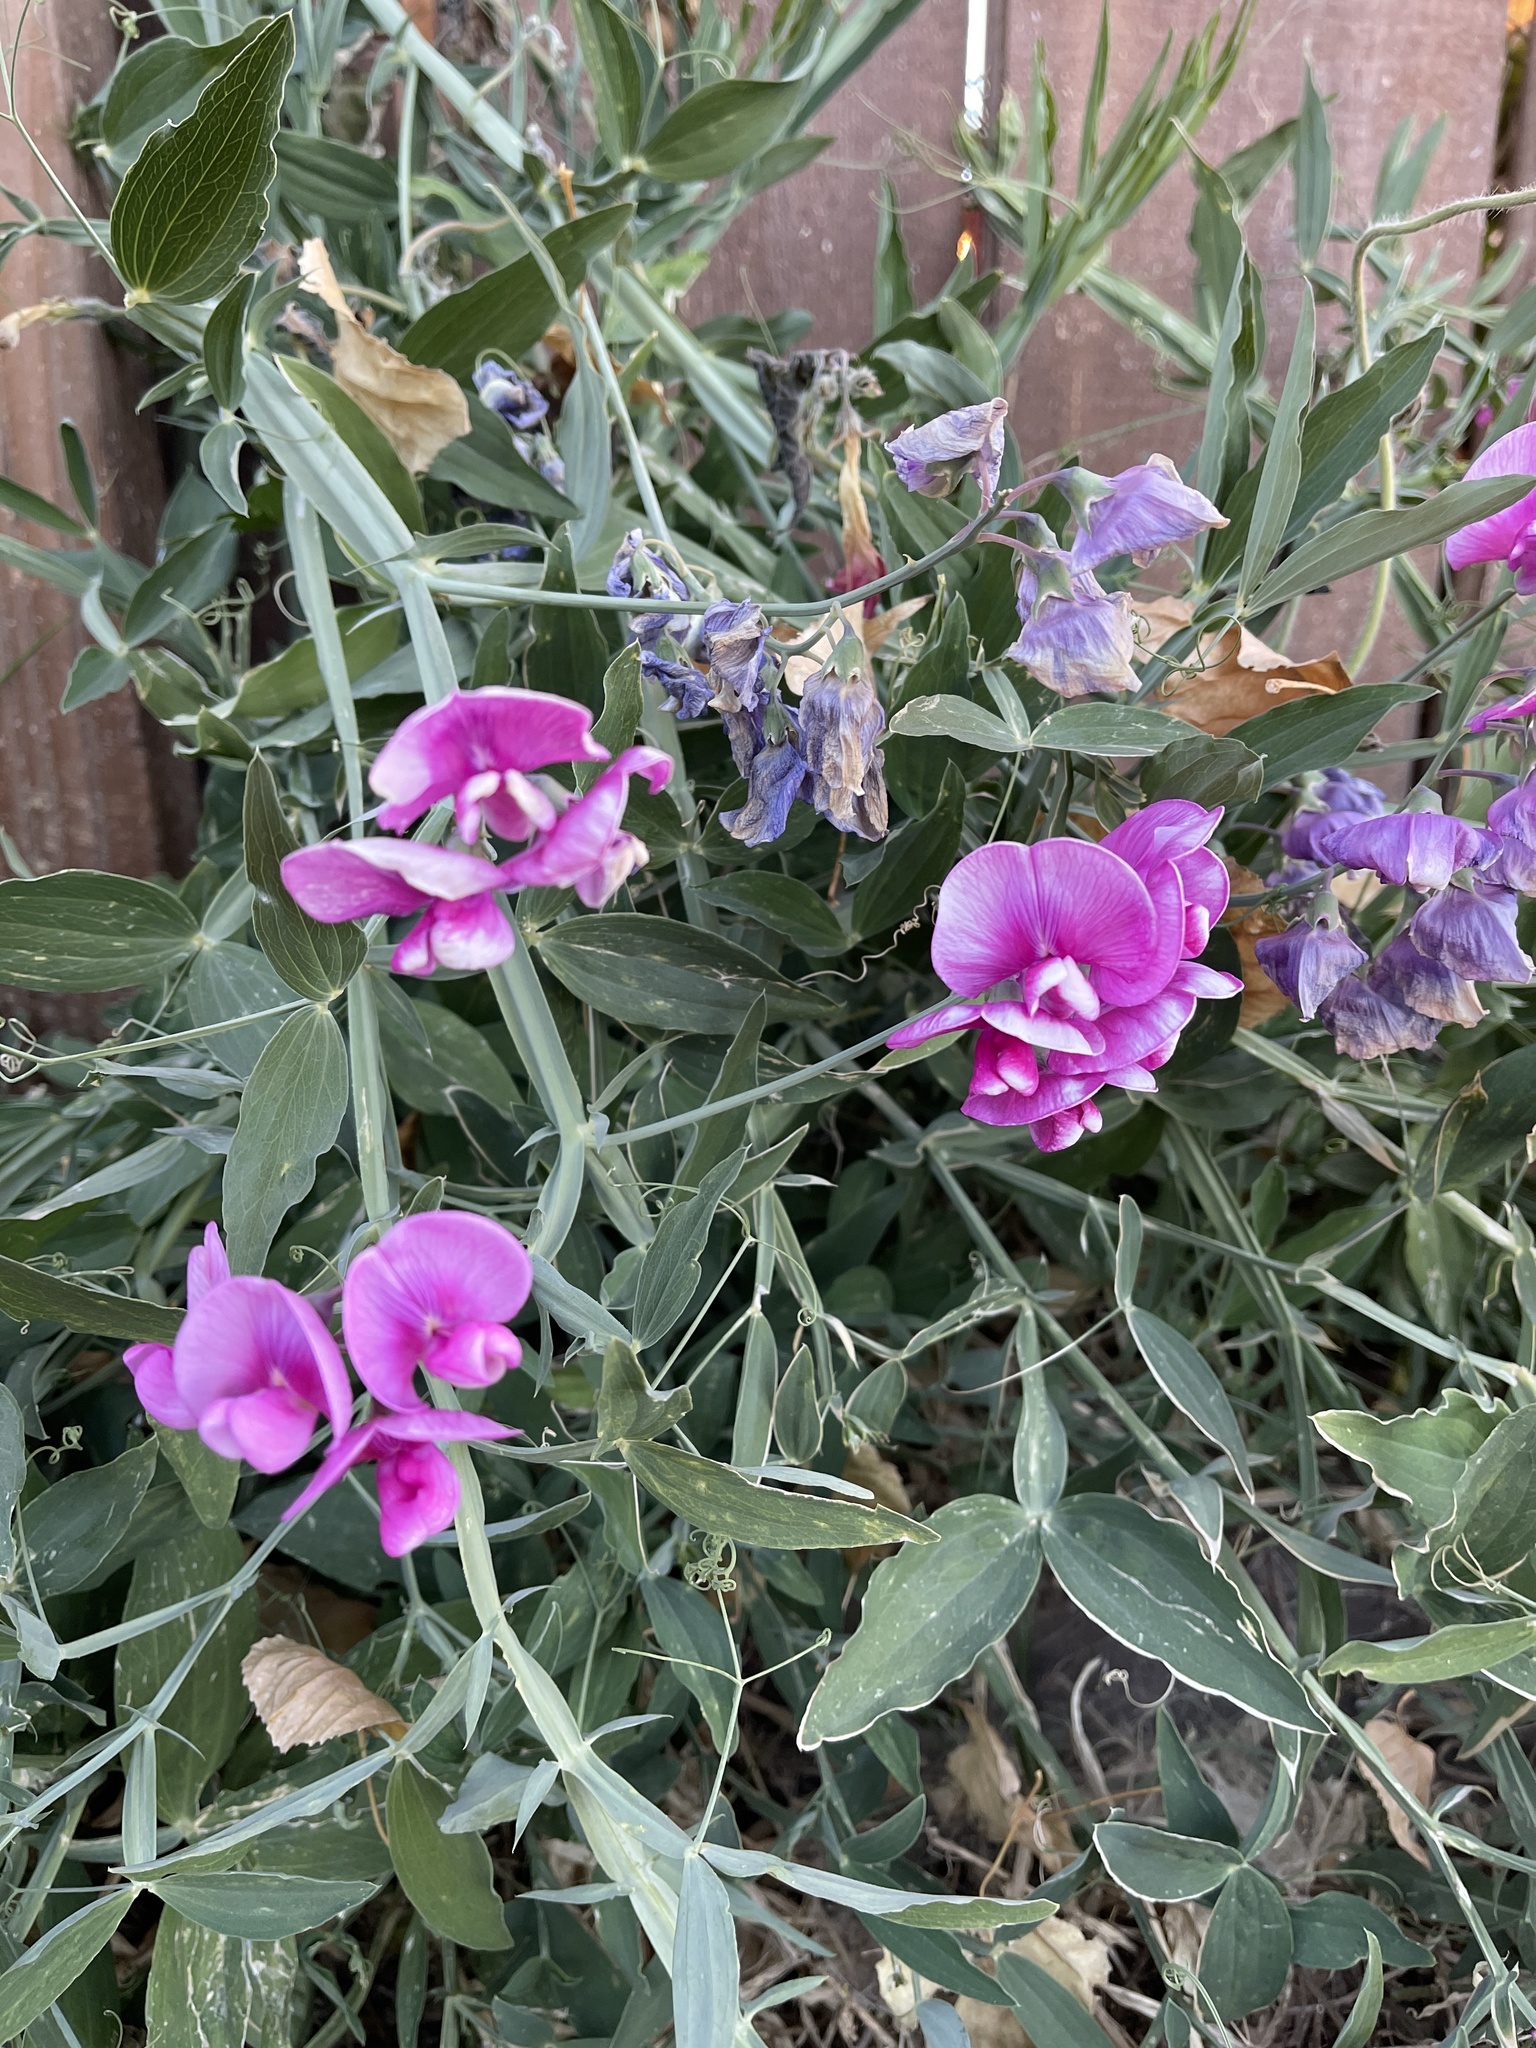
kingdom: Plantae
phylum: Tracheophyta
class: Magnoliopsida
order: Fabales
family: Fabaceae
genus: Lathyrus
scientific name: Lathyrus latifolius
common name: Perennial pea
